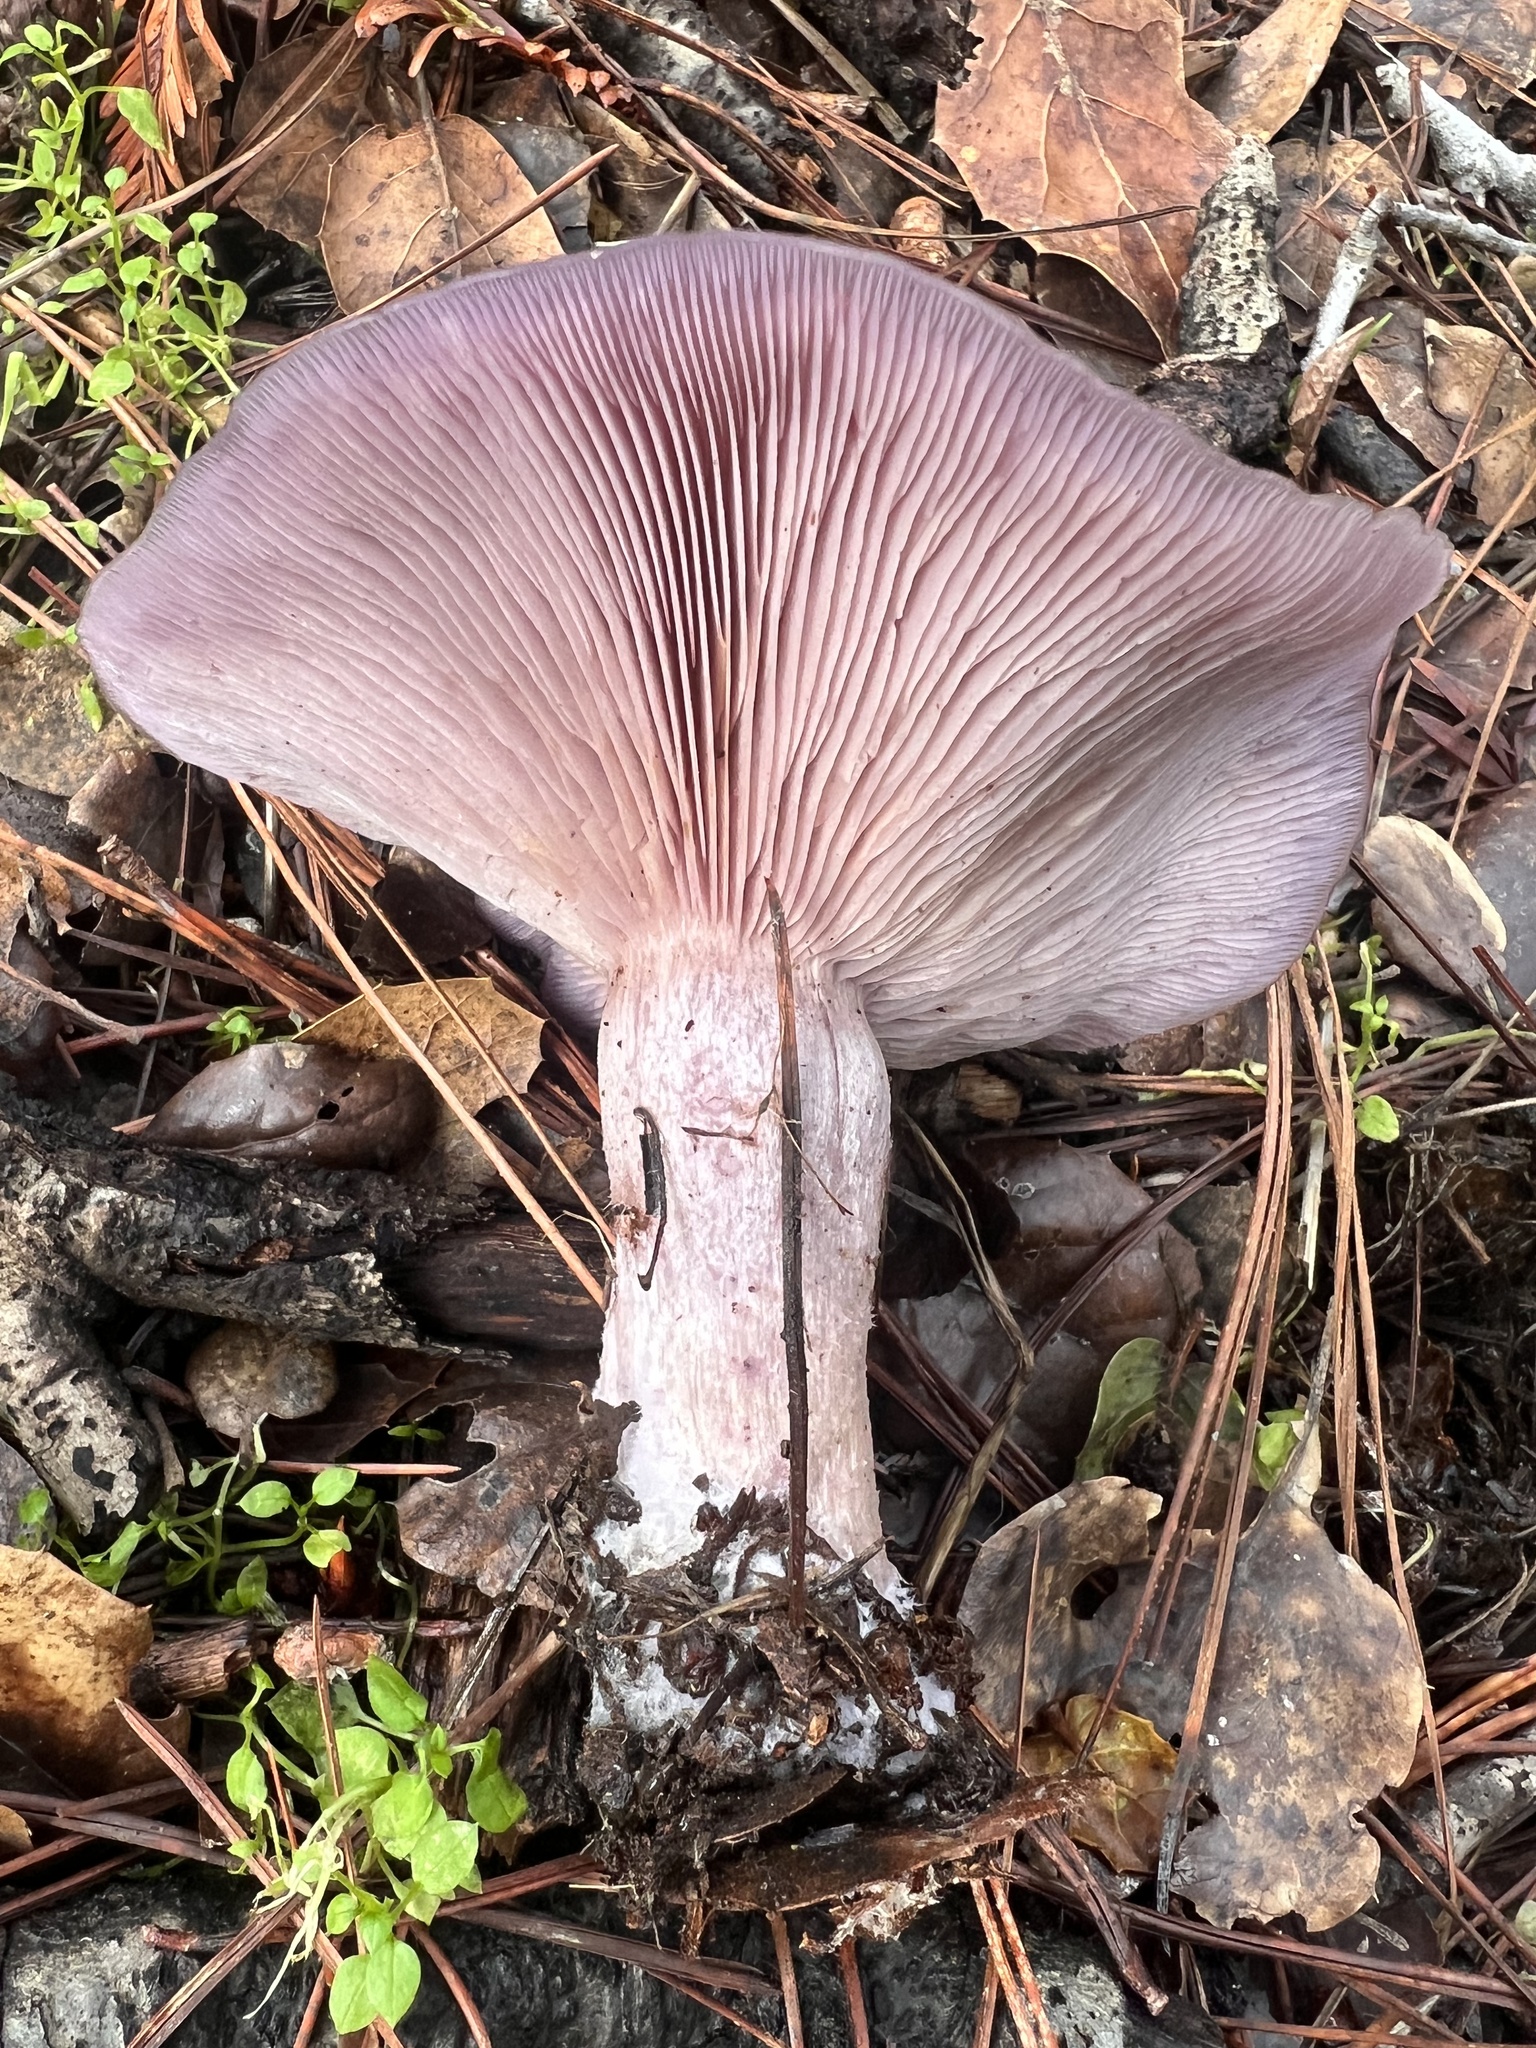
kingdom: Fungi
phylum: Basidiomycota
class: Agaricomycetes
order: Agaricales
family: Tricholomataceae
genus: Collybia
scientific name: Collybia
